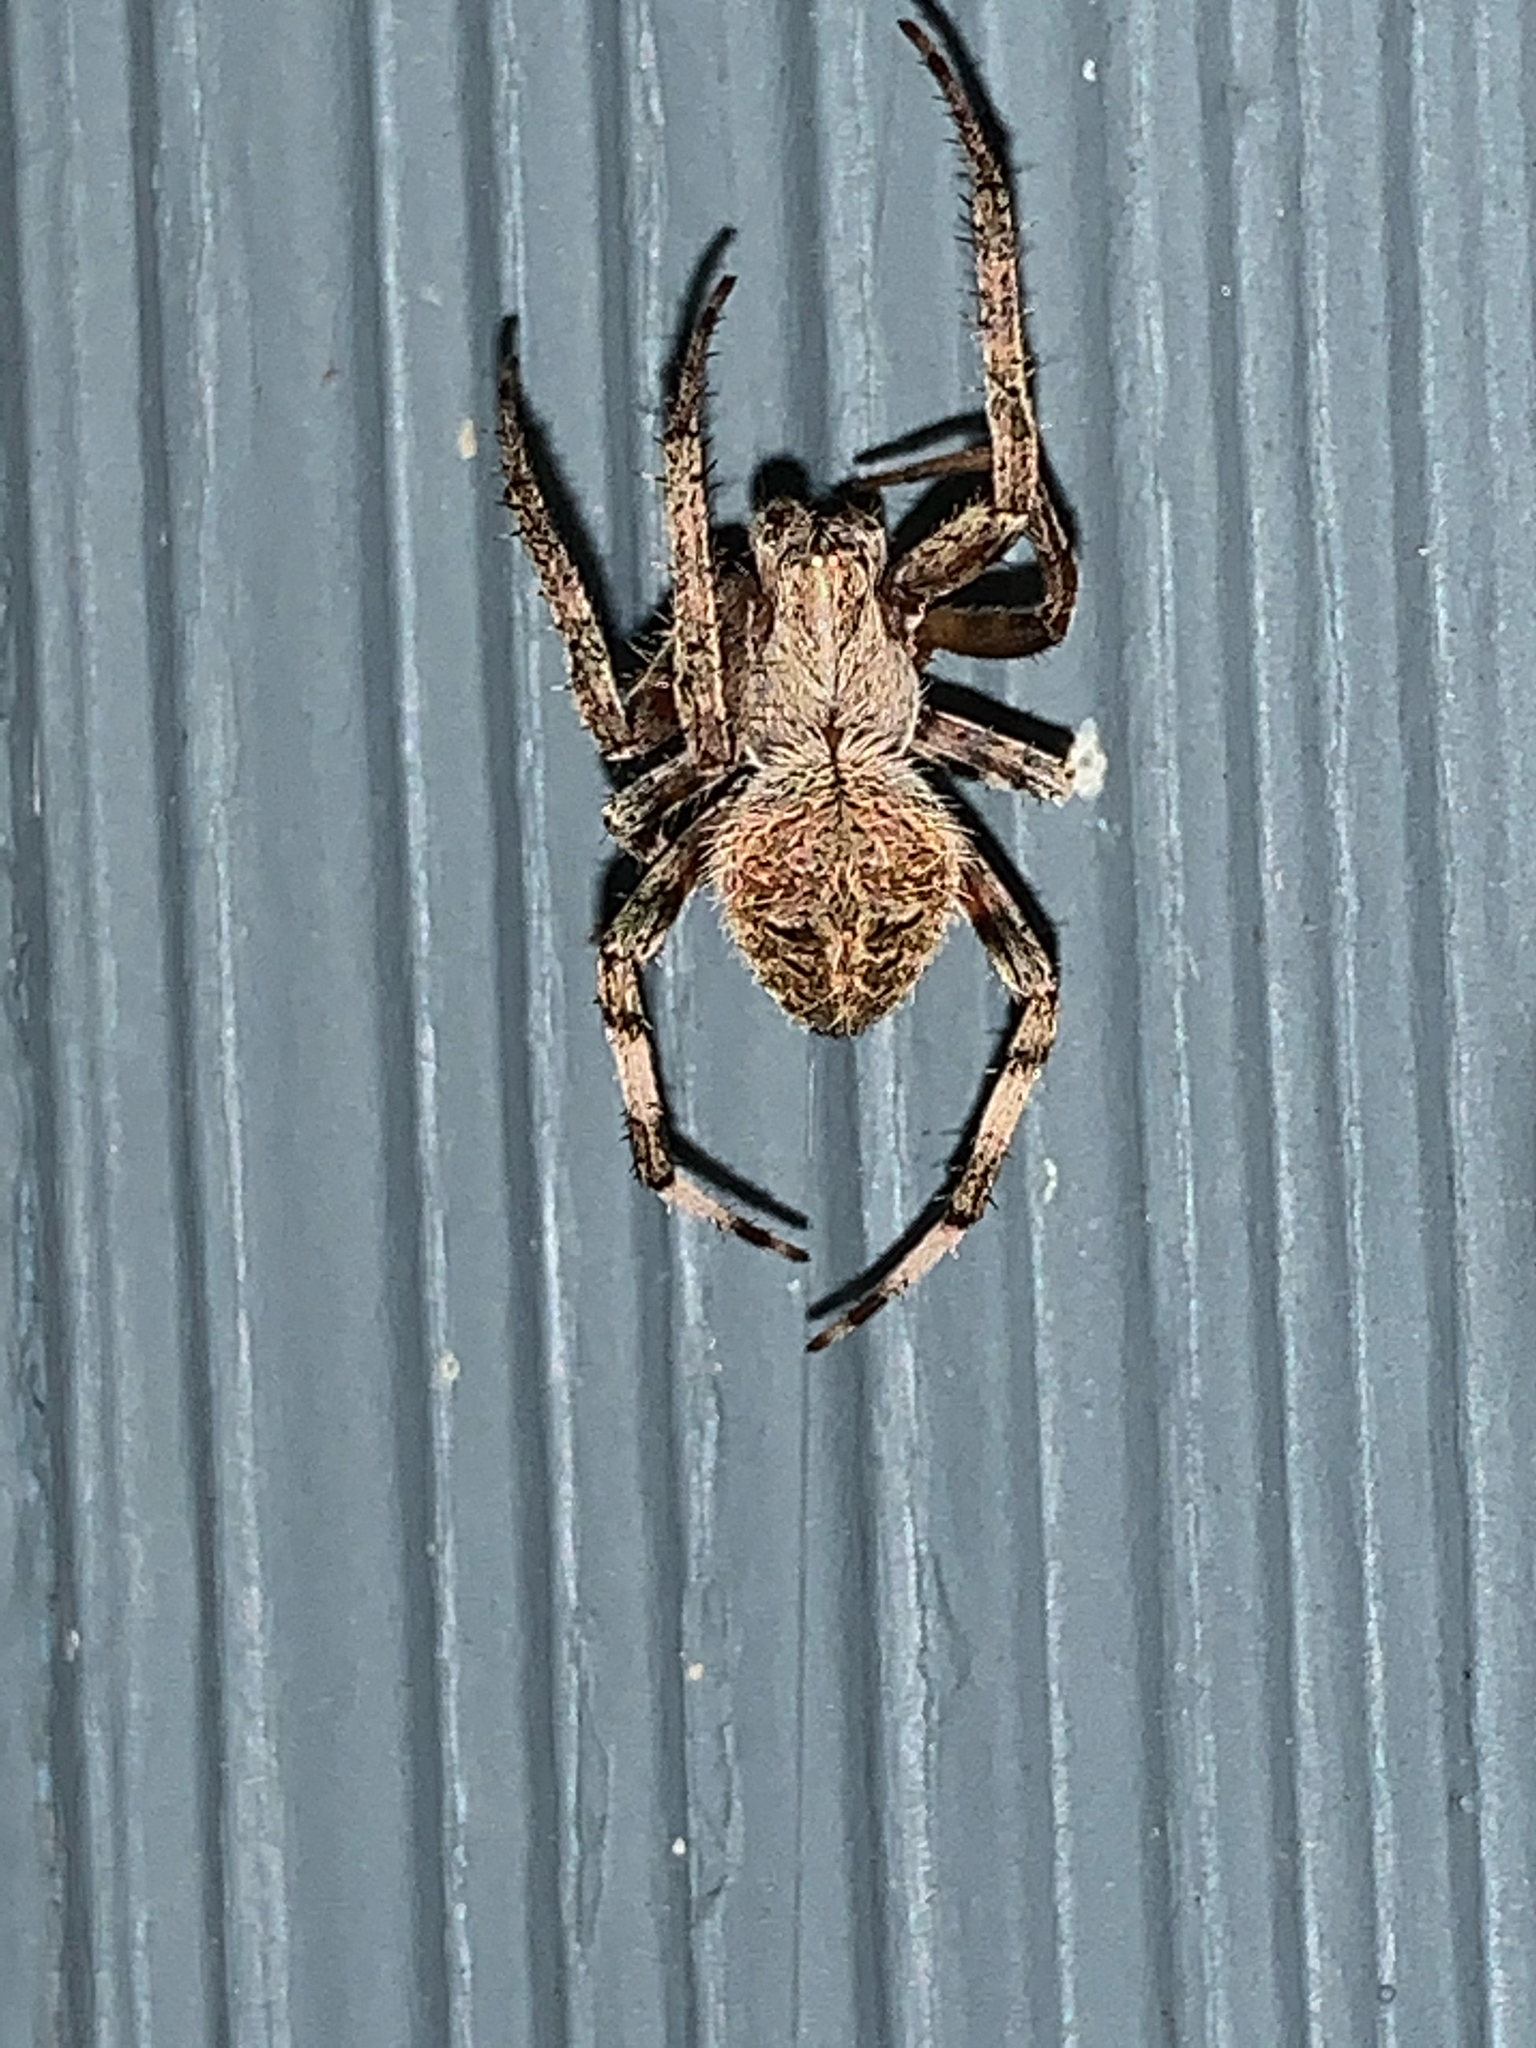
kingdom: Animalia
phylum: Arthropoda
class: Arachnida
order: Araneae
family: Araneidae
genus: Neoscona
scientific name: Neoscona
